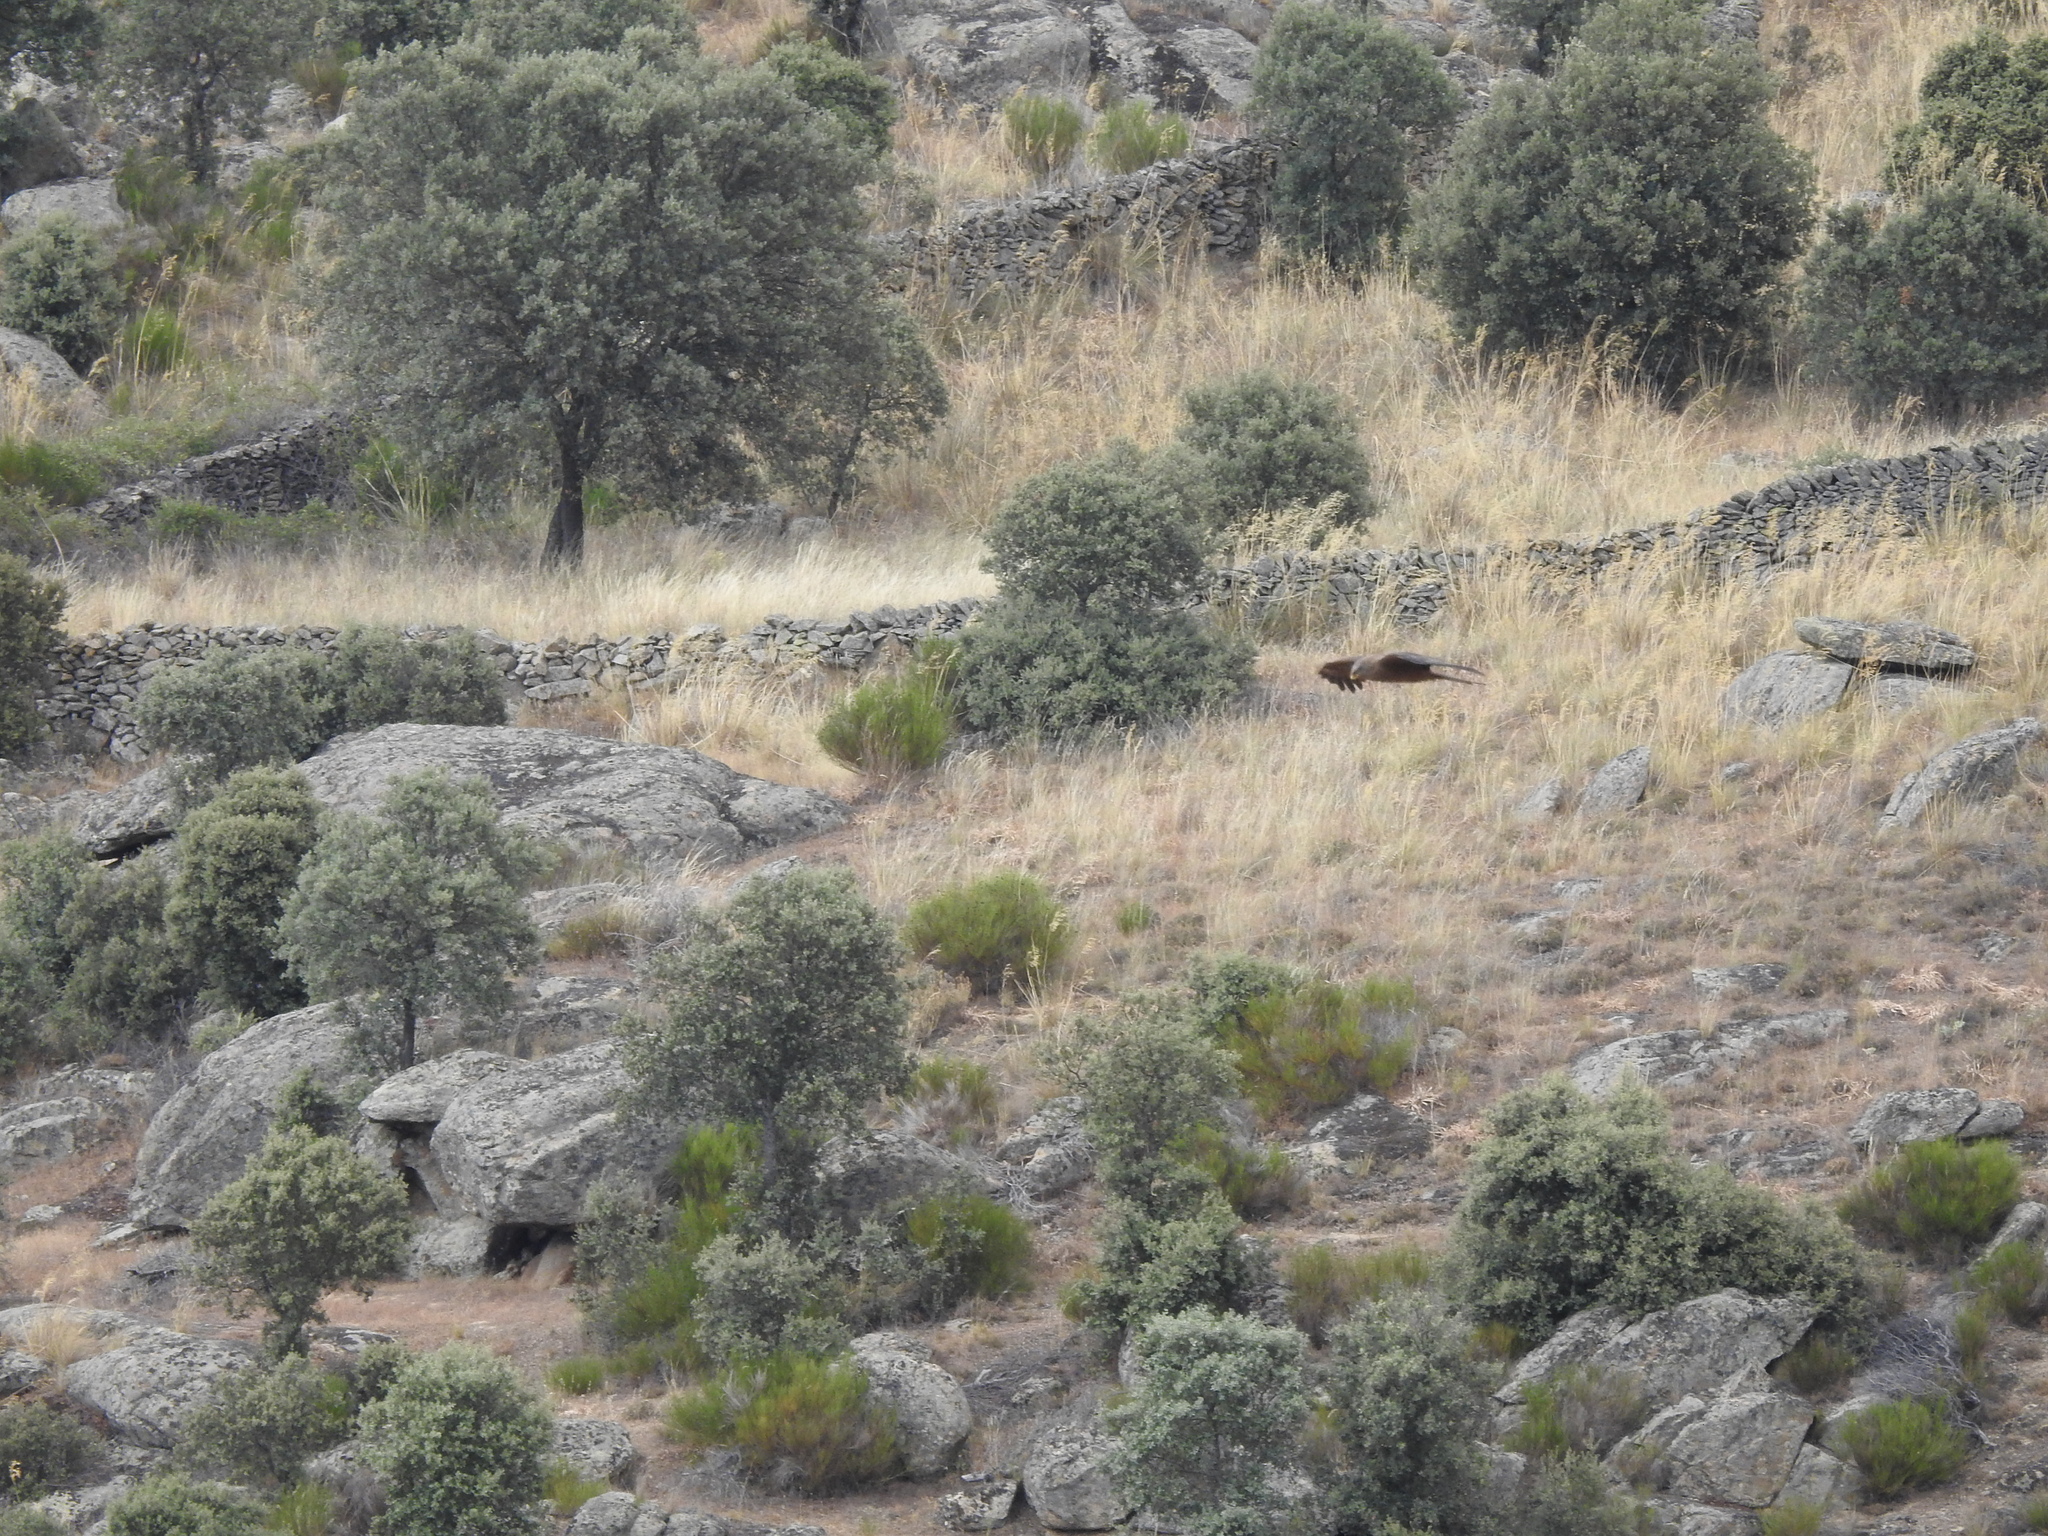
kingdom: Animalia
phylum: Chordata
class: Aves
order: Accipitriformes
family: Accipitridae
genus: Milvus
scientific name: Milvus migrans
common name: Black kite
